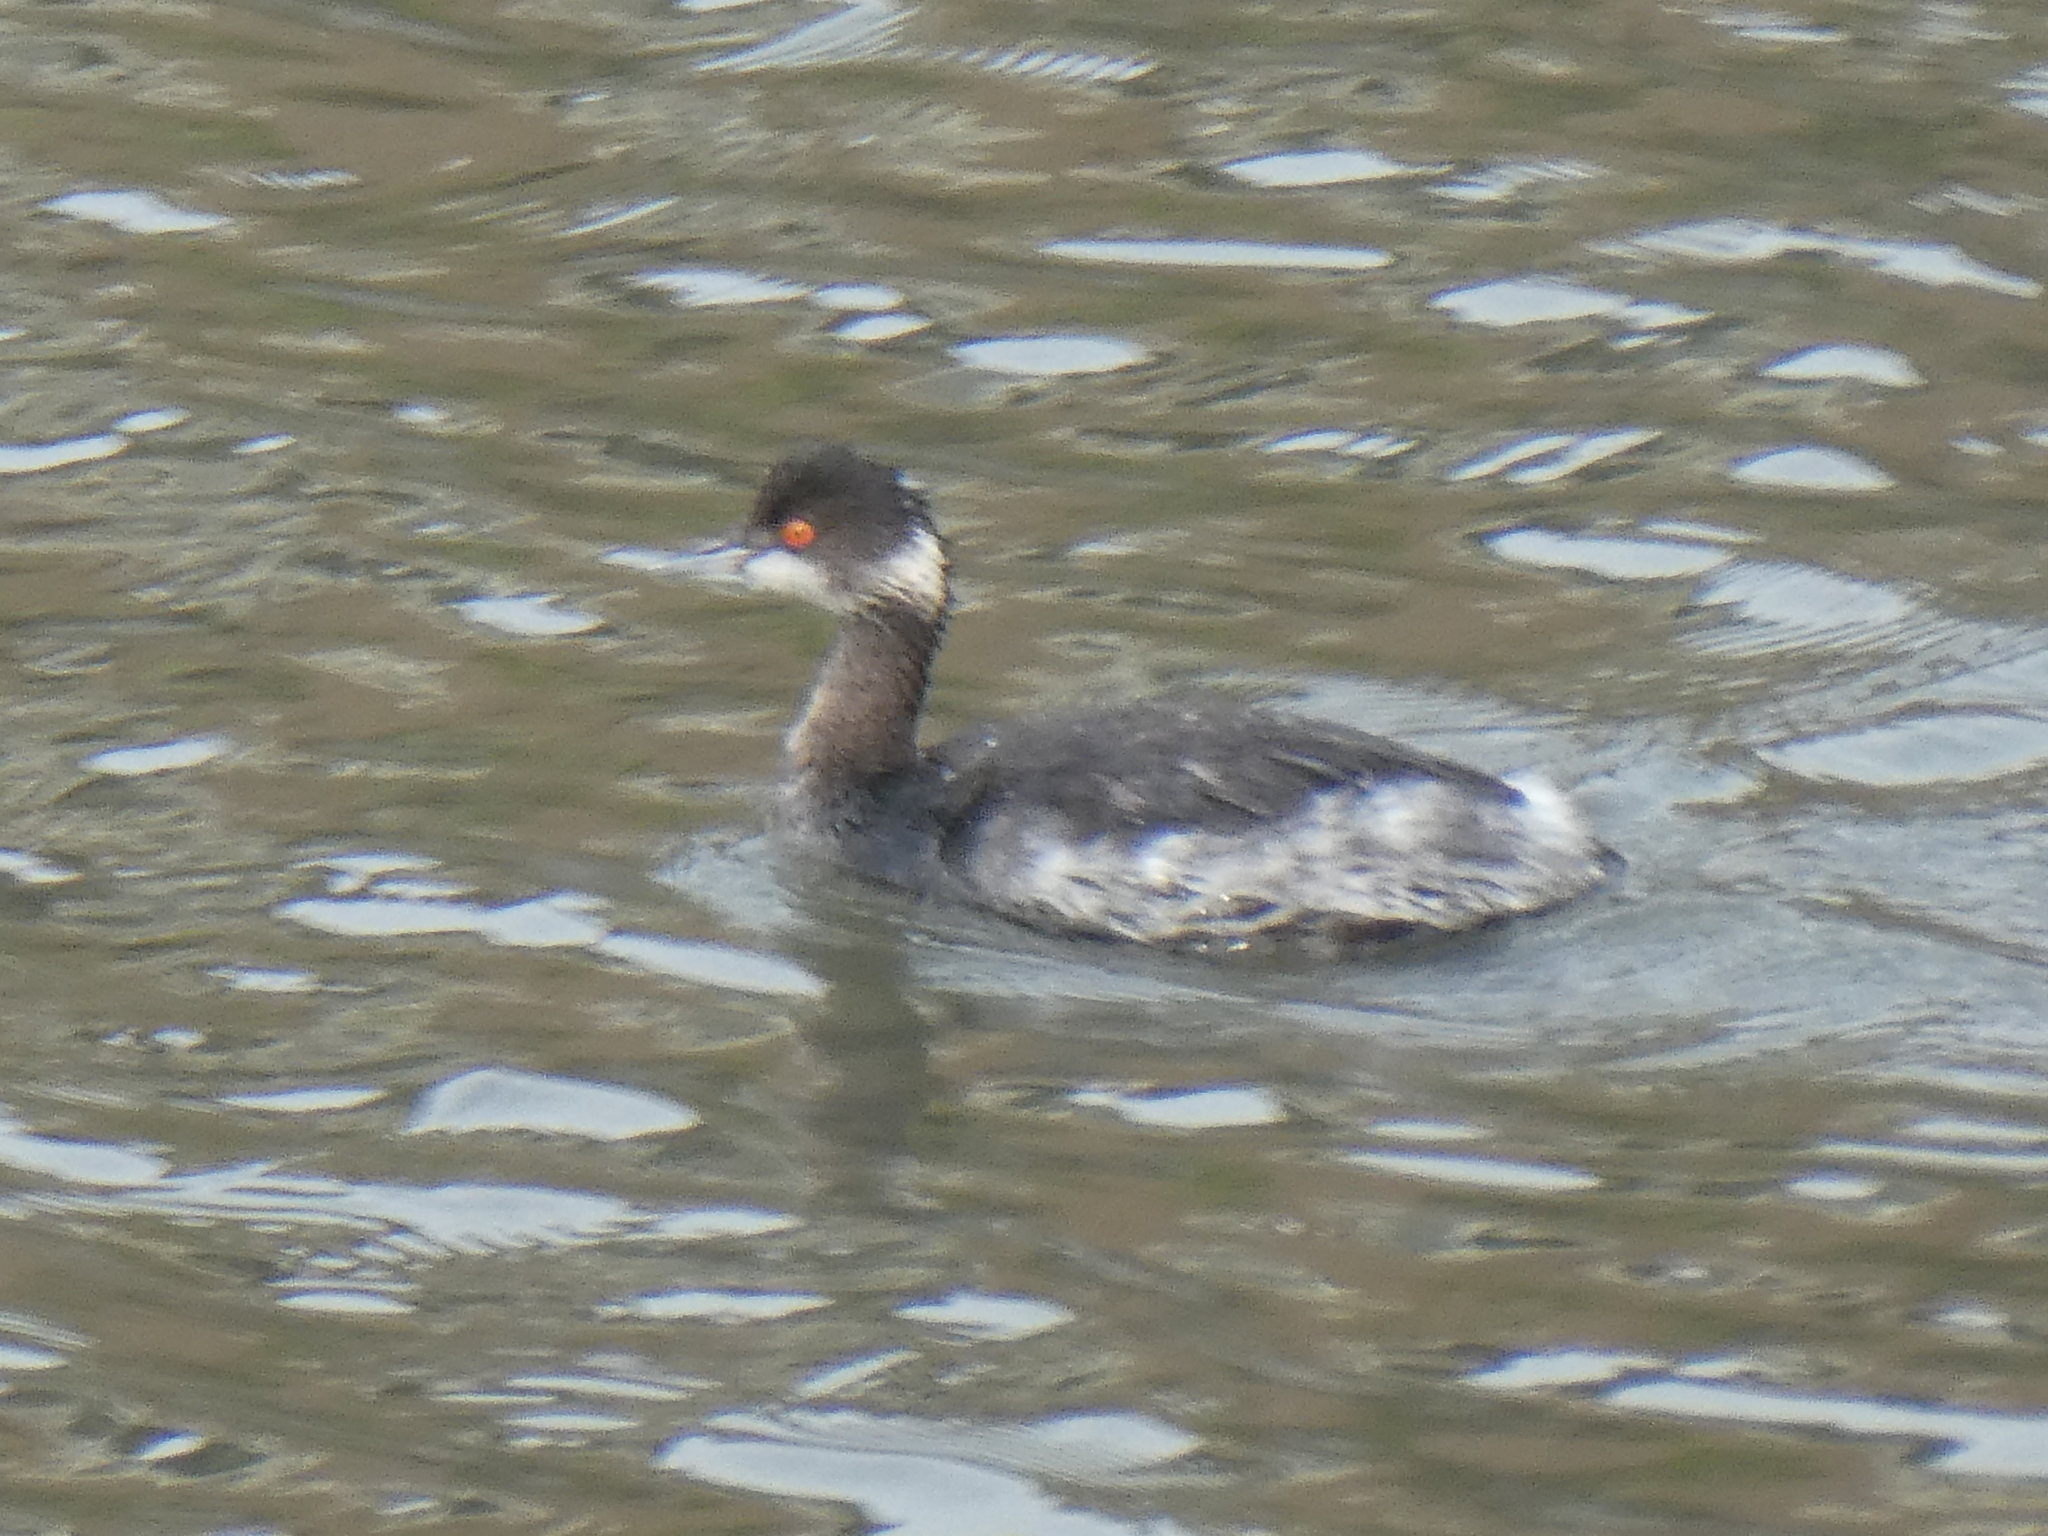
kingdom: Animalia
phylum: Chordata
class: Aves
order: Podicipediformes
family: Podicipedidae
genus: Podiceps
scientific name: Podiceps nigricollis
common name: Black-necked grebe
